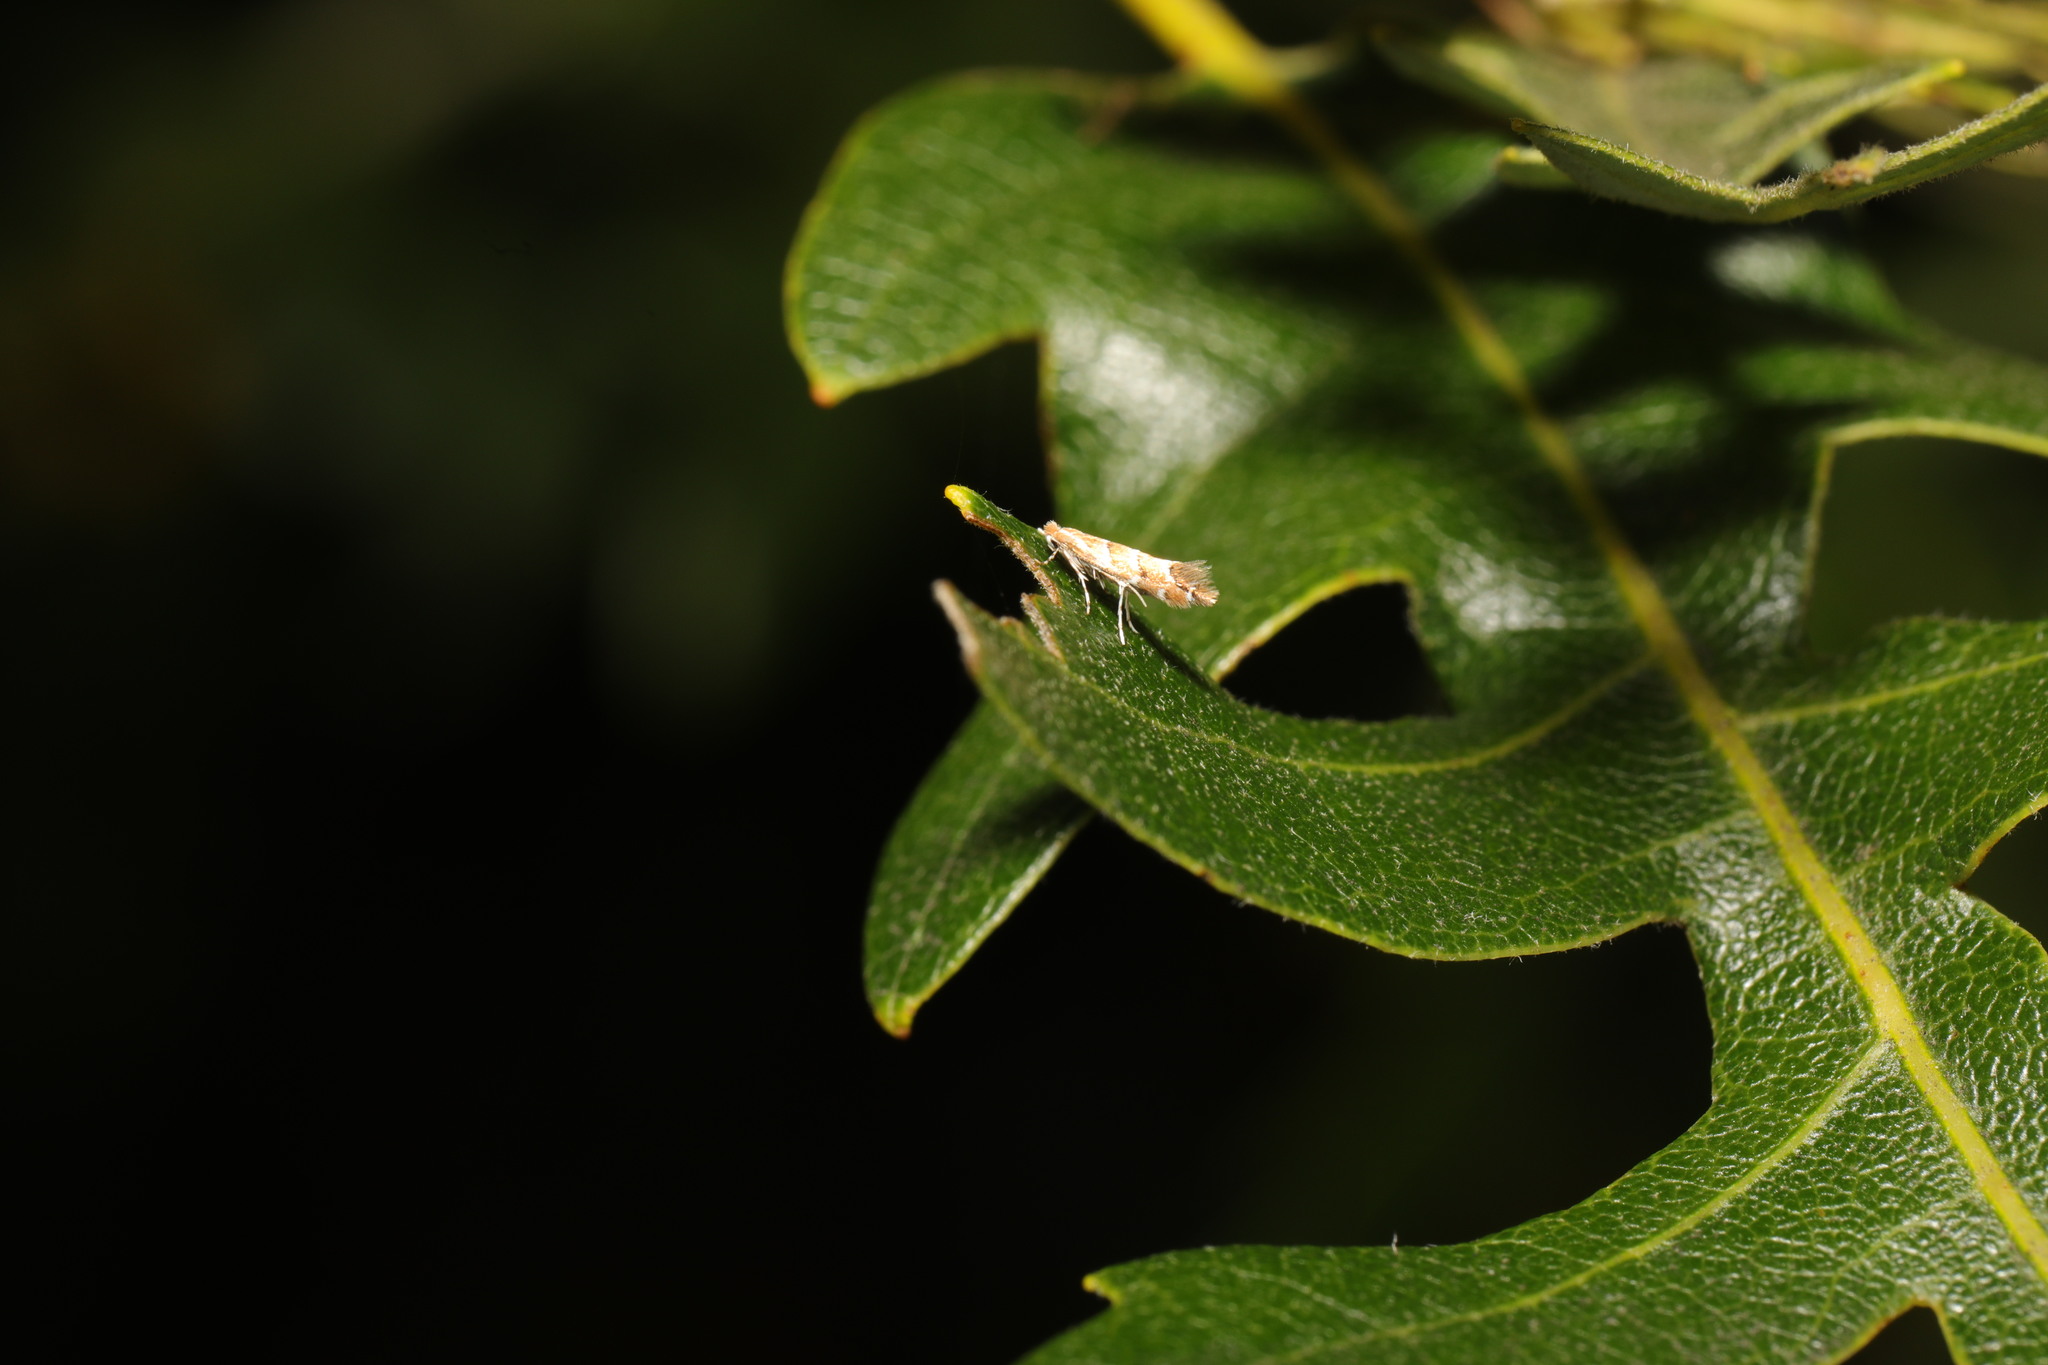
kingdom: Animalia
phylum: Arthropoda
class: Insecta
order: Lepidoptera
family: Gracillariidae
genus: Cameraria
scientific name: Cameraria ohridella
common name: Horse-chestnut leaf-miner
